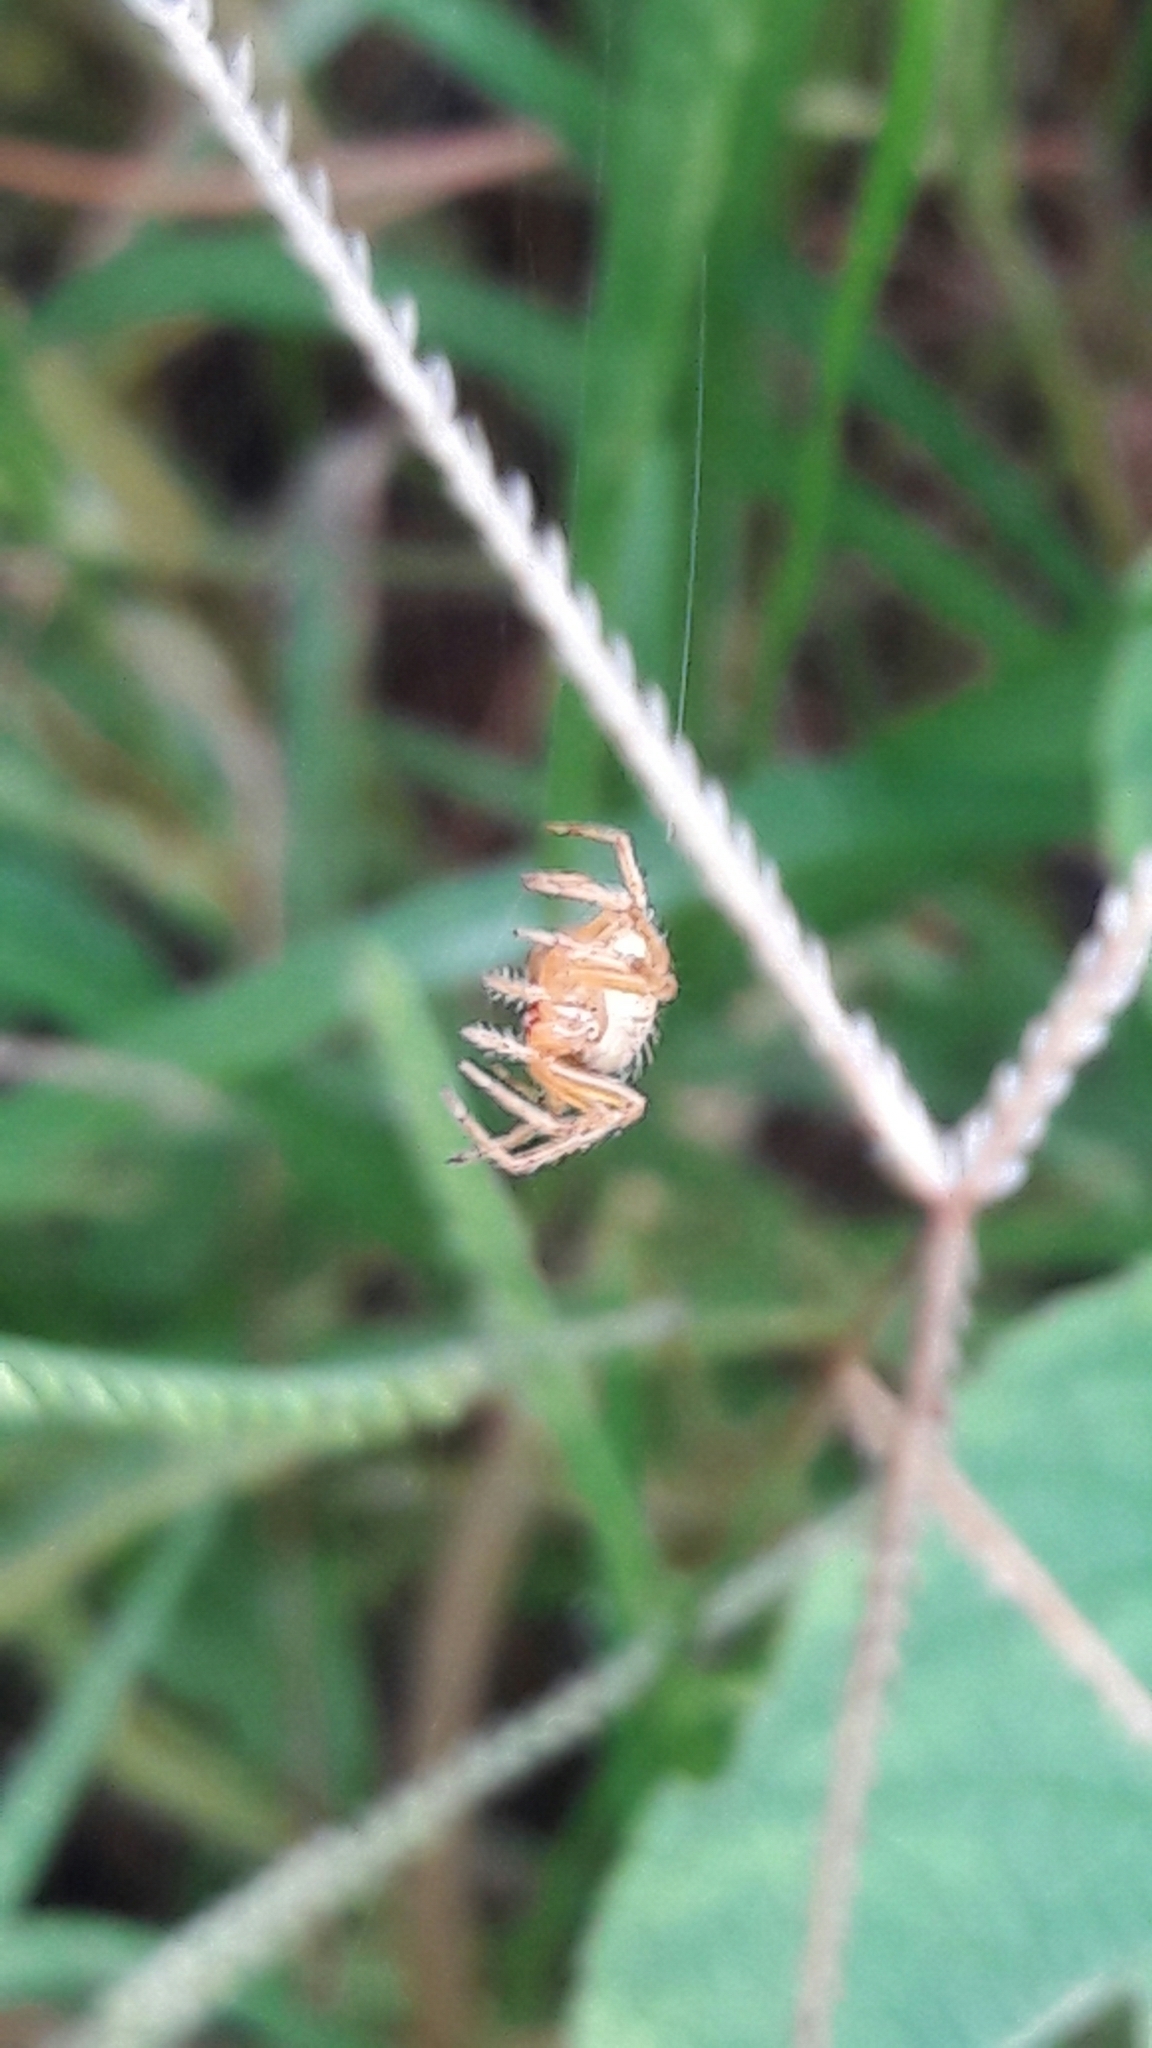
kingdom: Animalia
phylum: Arthropoda
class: Arachnida
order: Araneae
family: Araneidae
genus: Eriophora
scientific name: Eriophora edax
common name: Orb weavers
